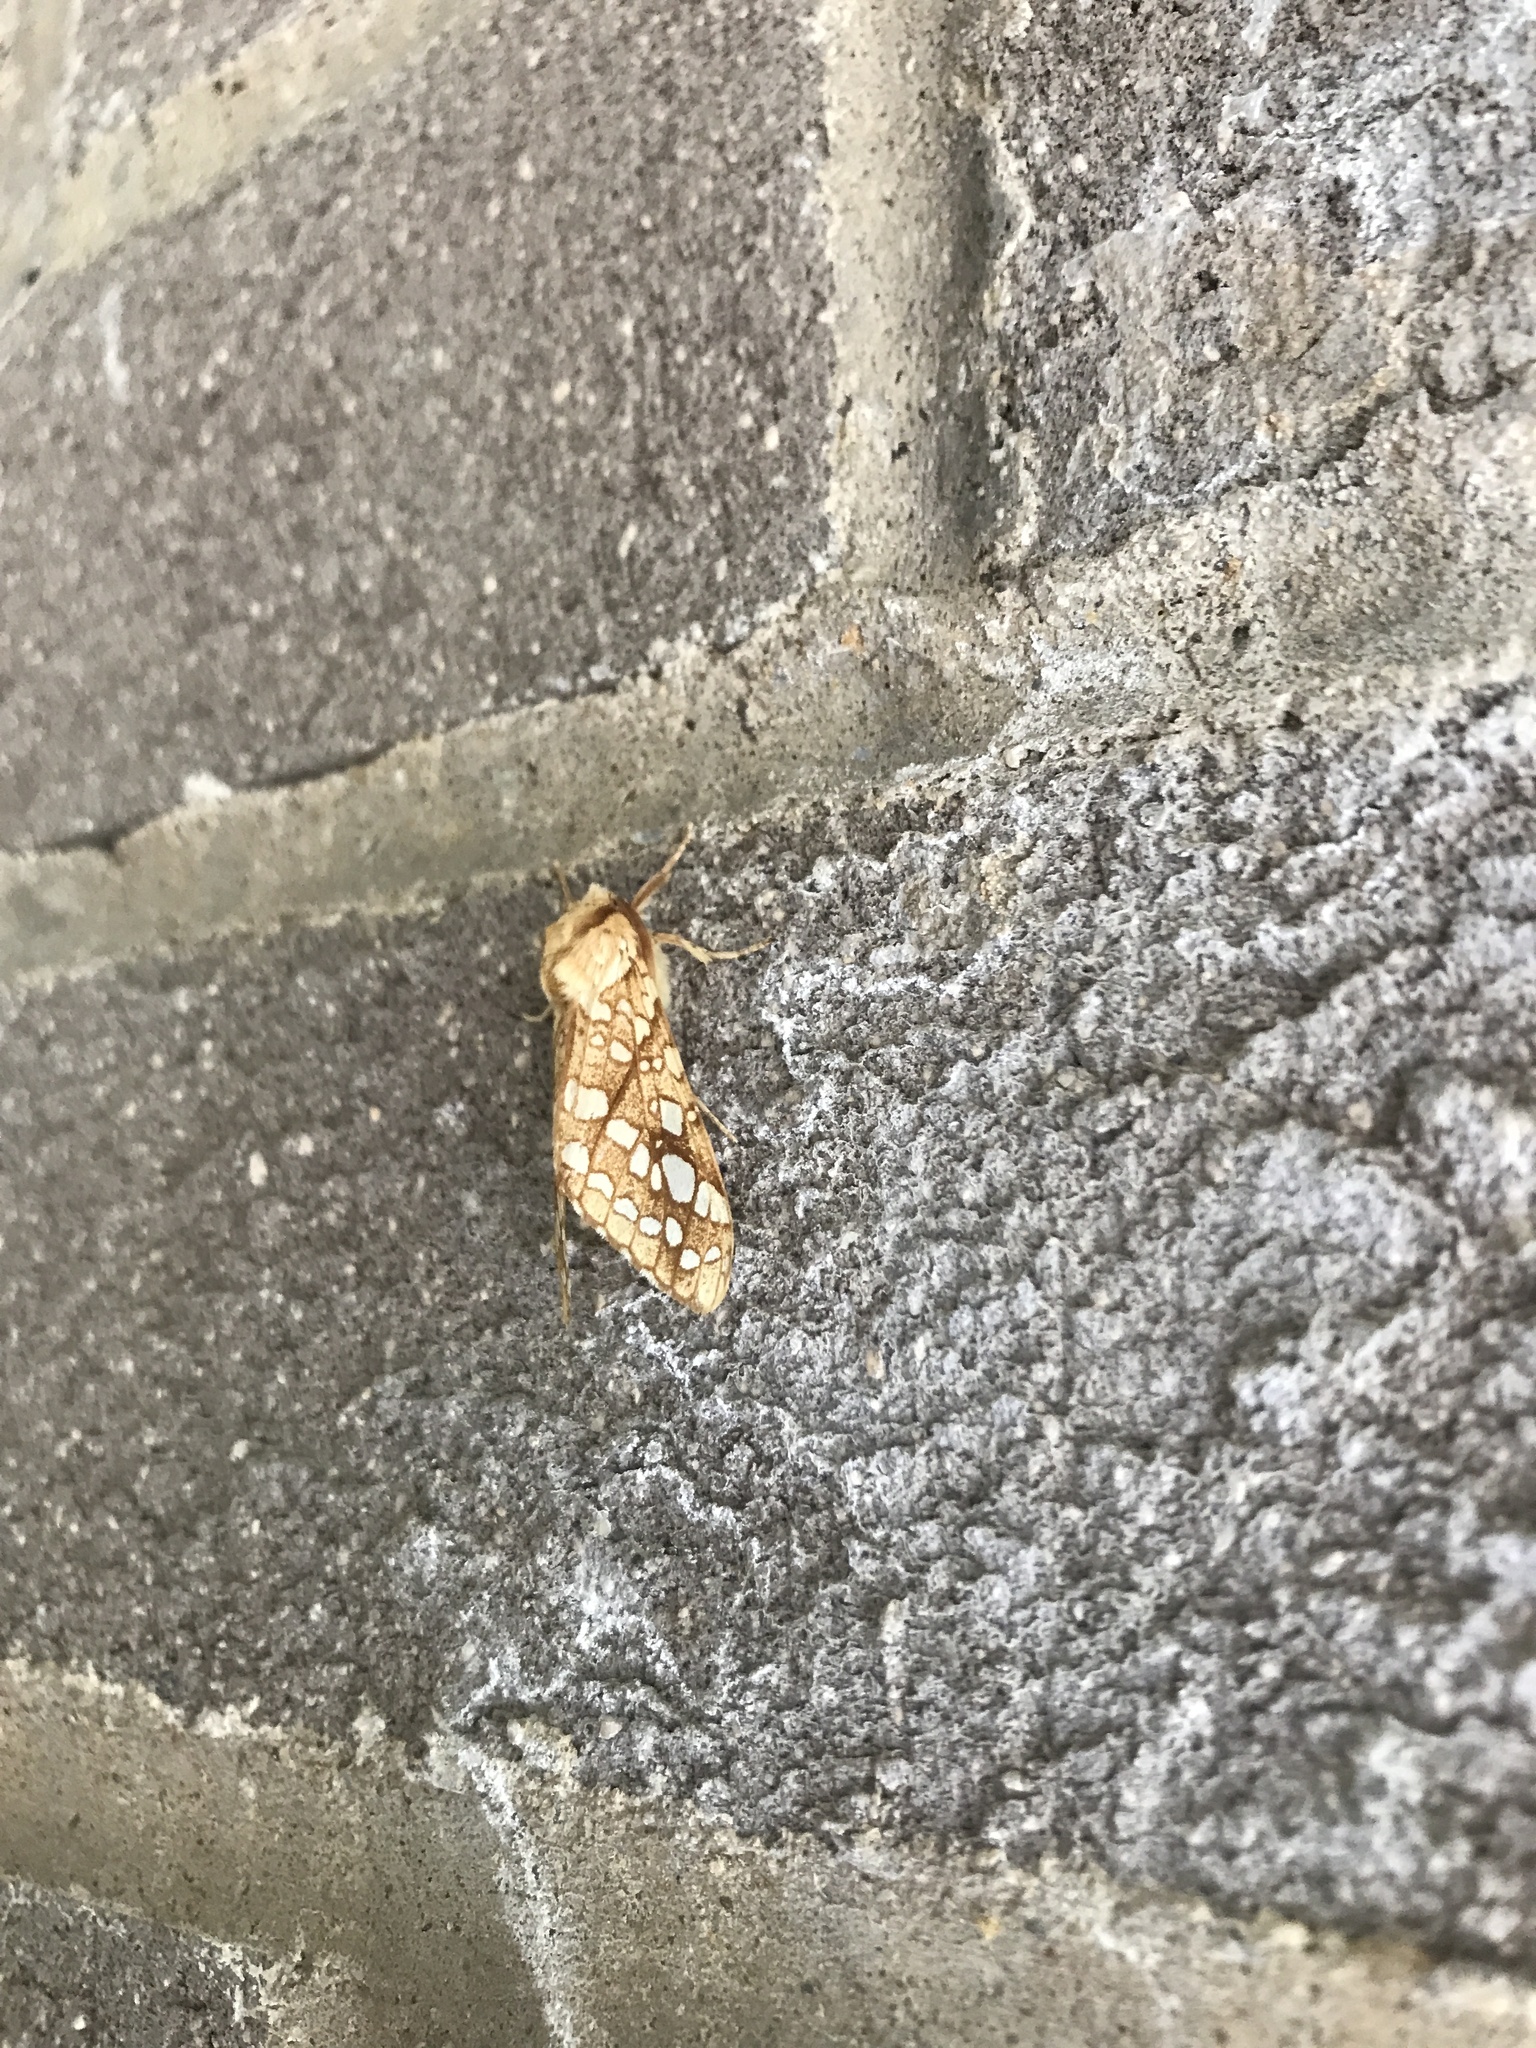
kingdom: Animalia
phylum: Arthropoda
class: Insecta
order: Lepidoptera
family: Erebidae
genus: Lophocampa
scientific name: Lophocampa caryae
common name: Hickory tussock moth
